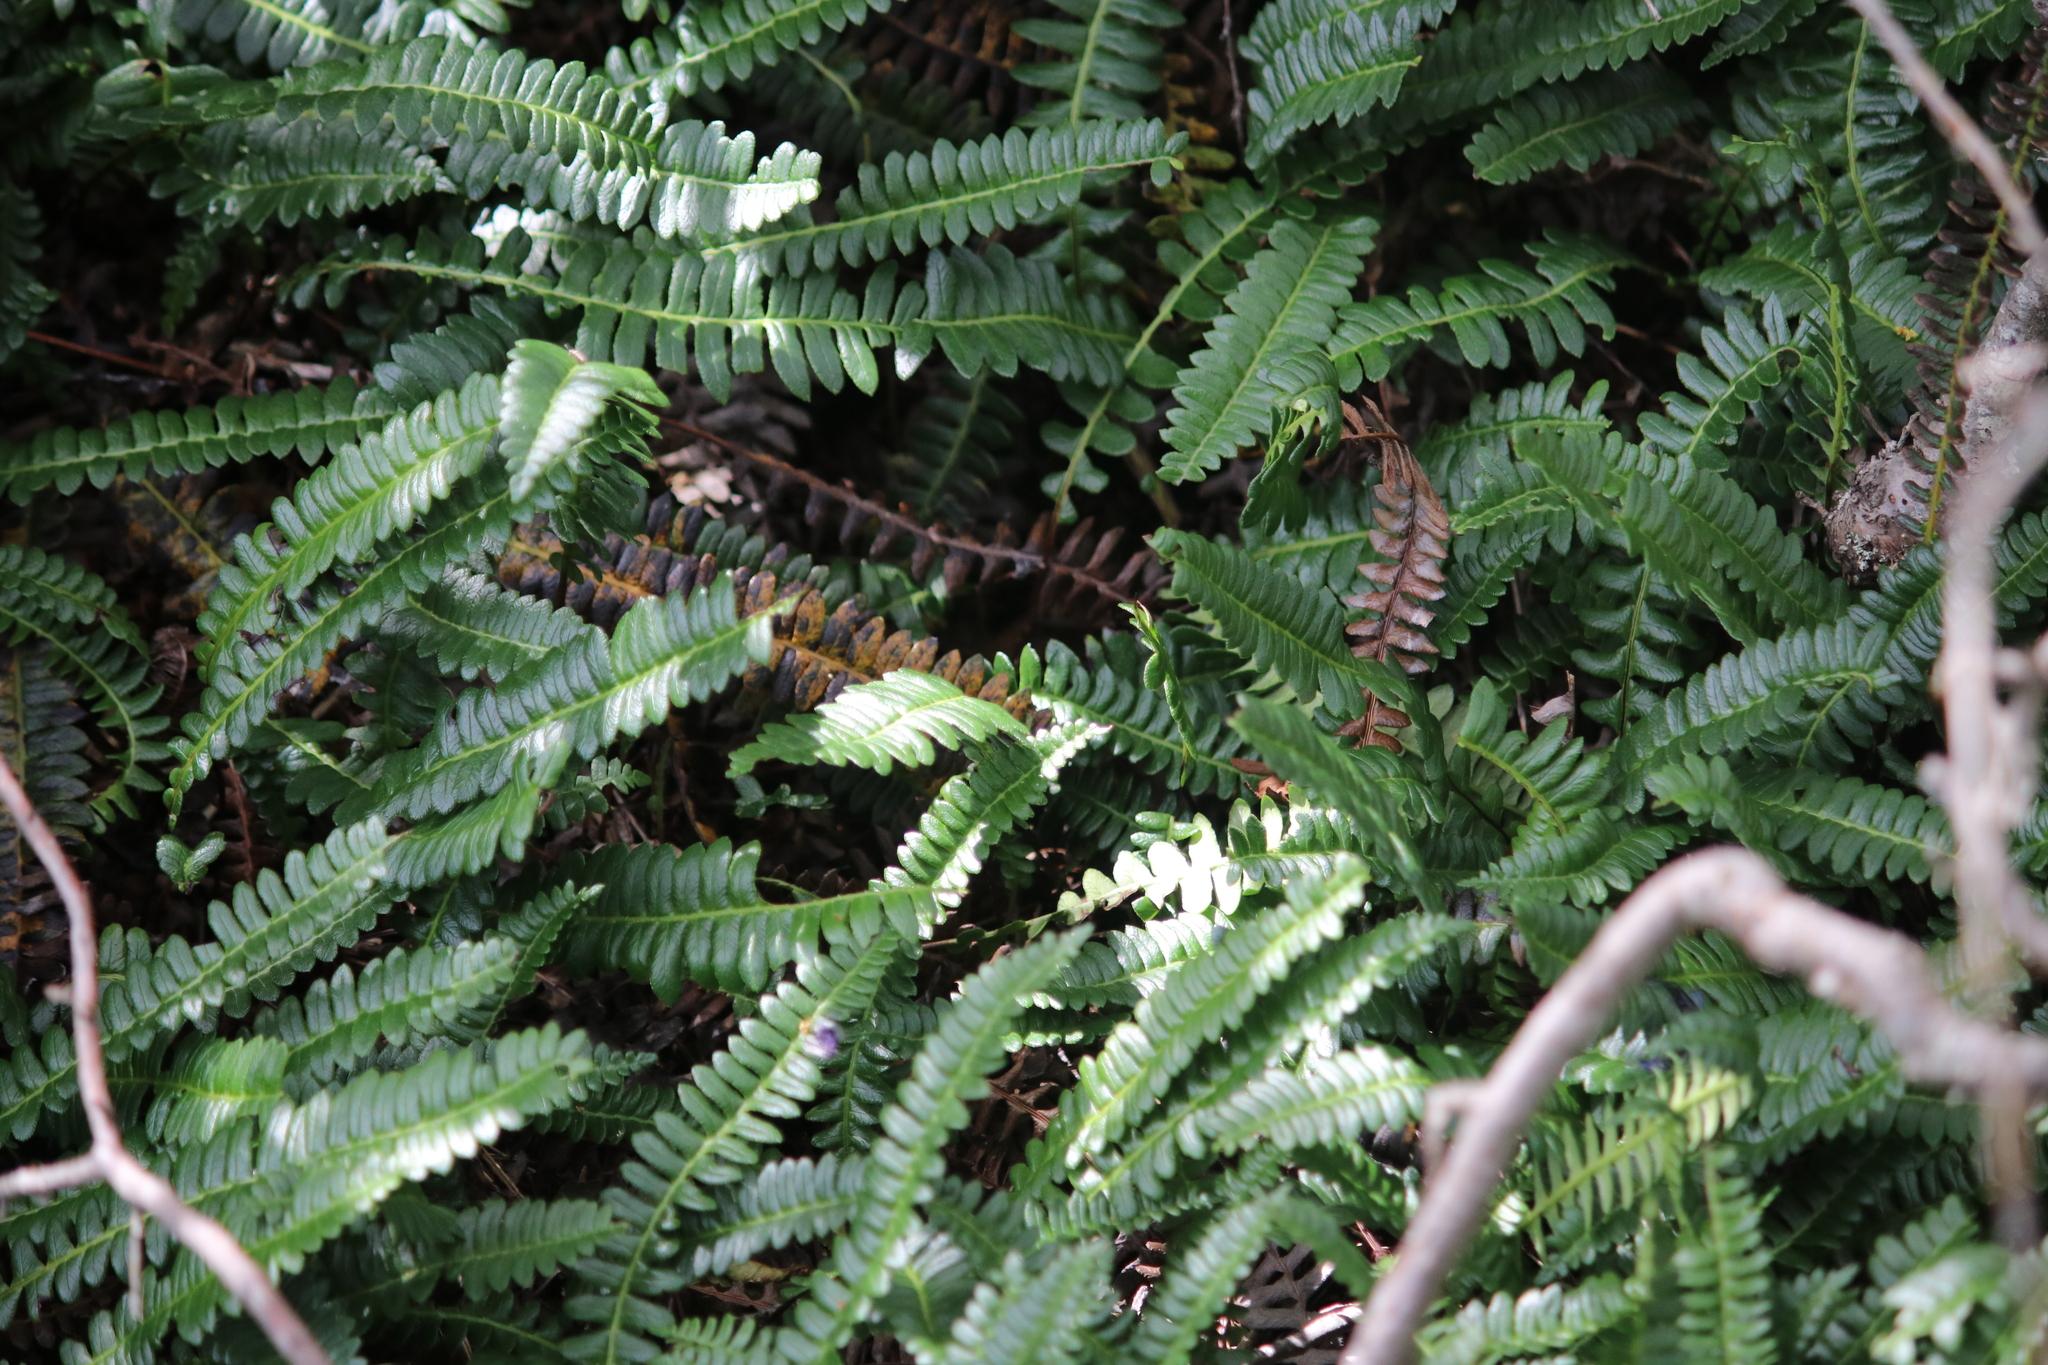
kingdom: Plantae
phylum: Tracheophyta
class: Polypodiopsida
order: Polypodiales
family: Blechnaceae
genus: Austroblechnum
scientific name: Austroblechnum penna-marina
